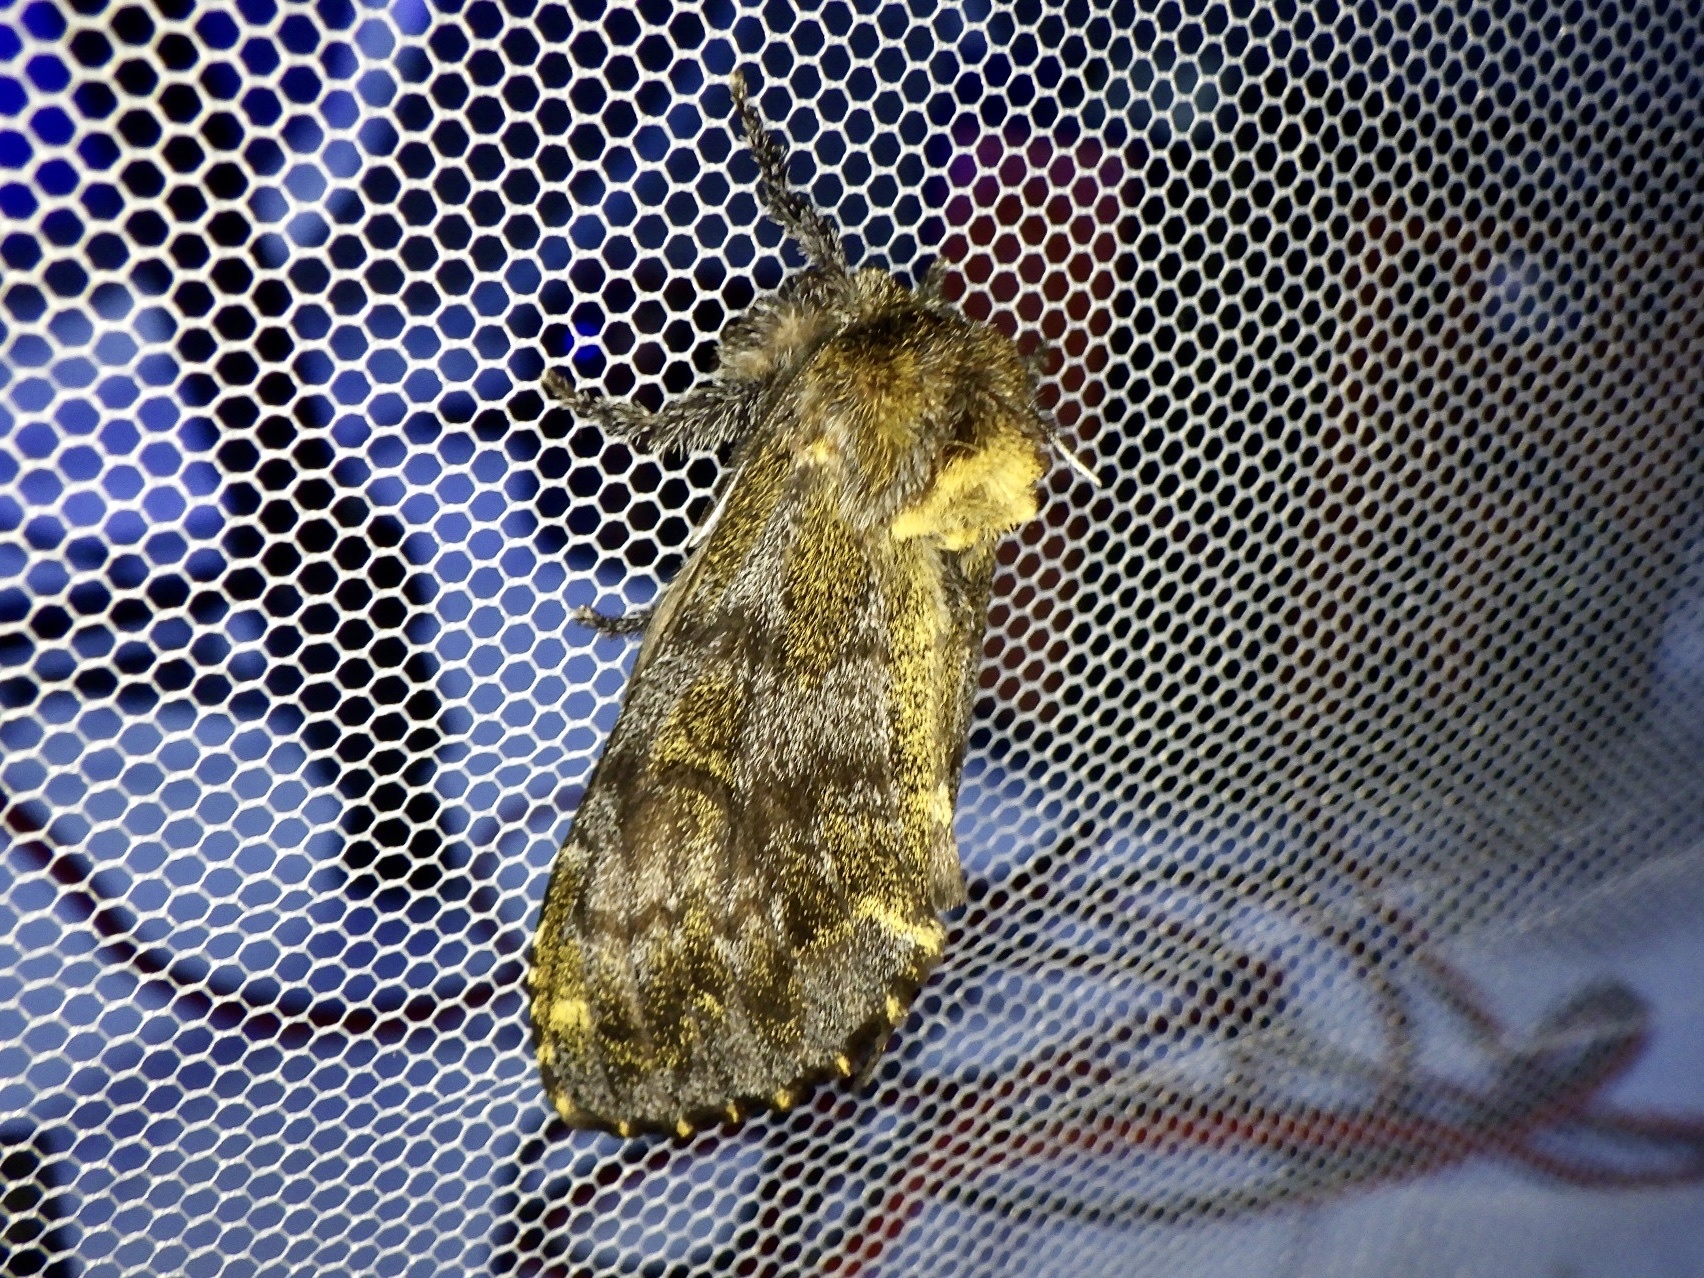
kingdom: Animalia
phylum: Arthropoda
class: Insecta
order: Lepidoptera
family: Notodontidae
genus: Zaranga
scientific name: Zaranga permagna
